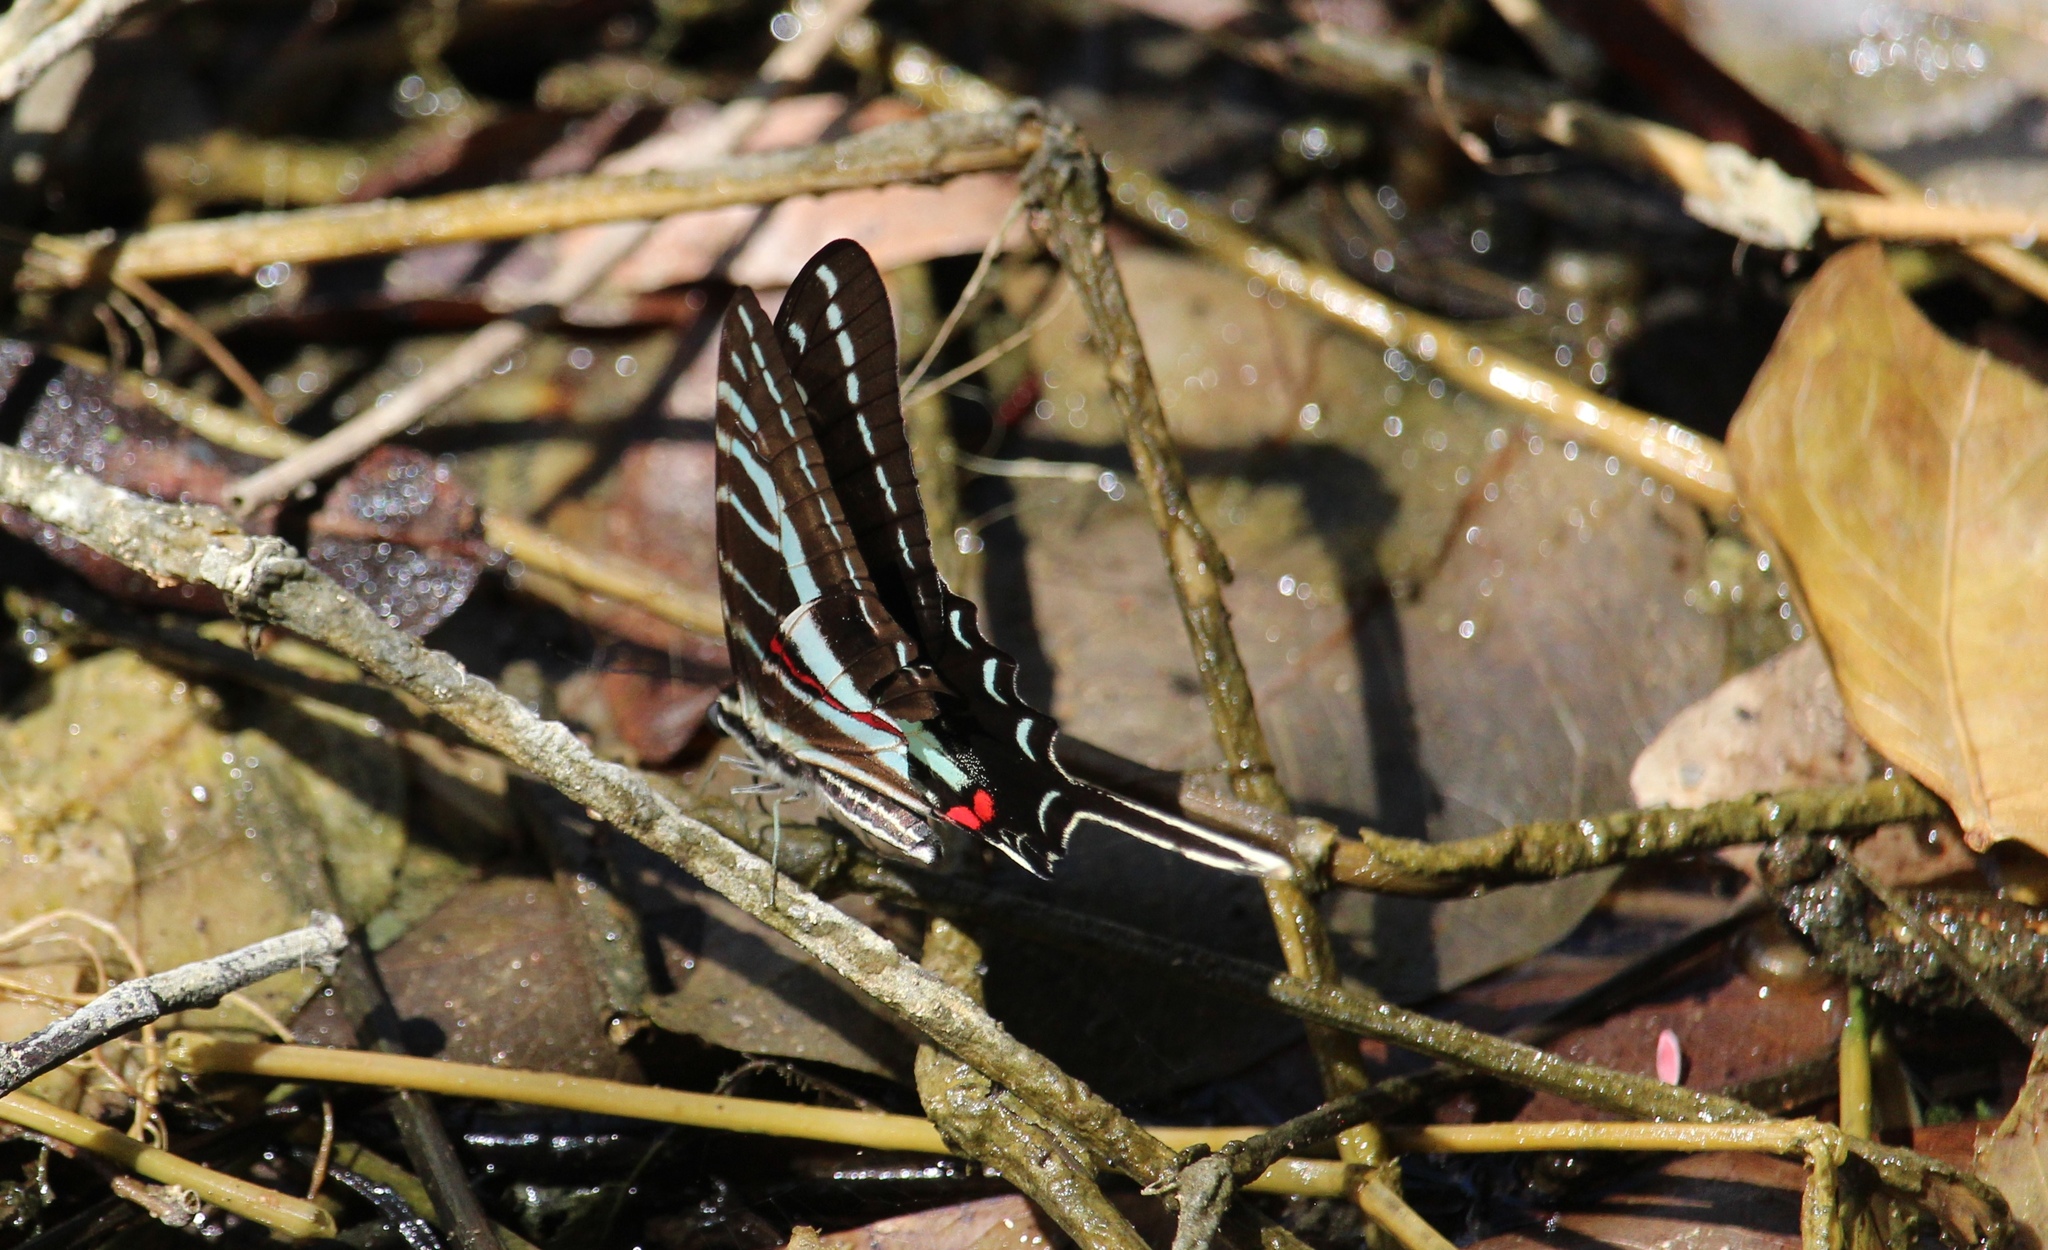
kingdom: Animalia
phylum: Arthropoda
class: Insecta
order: Lepidoptera
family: Papilionidae
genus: Protographium
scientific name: Protographium philolaus
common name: Dark zebra swallowtail
